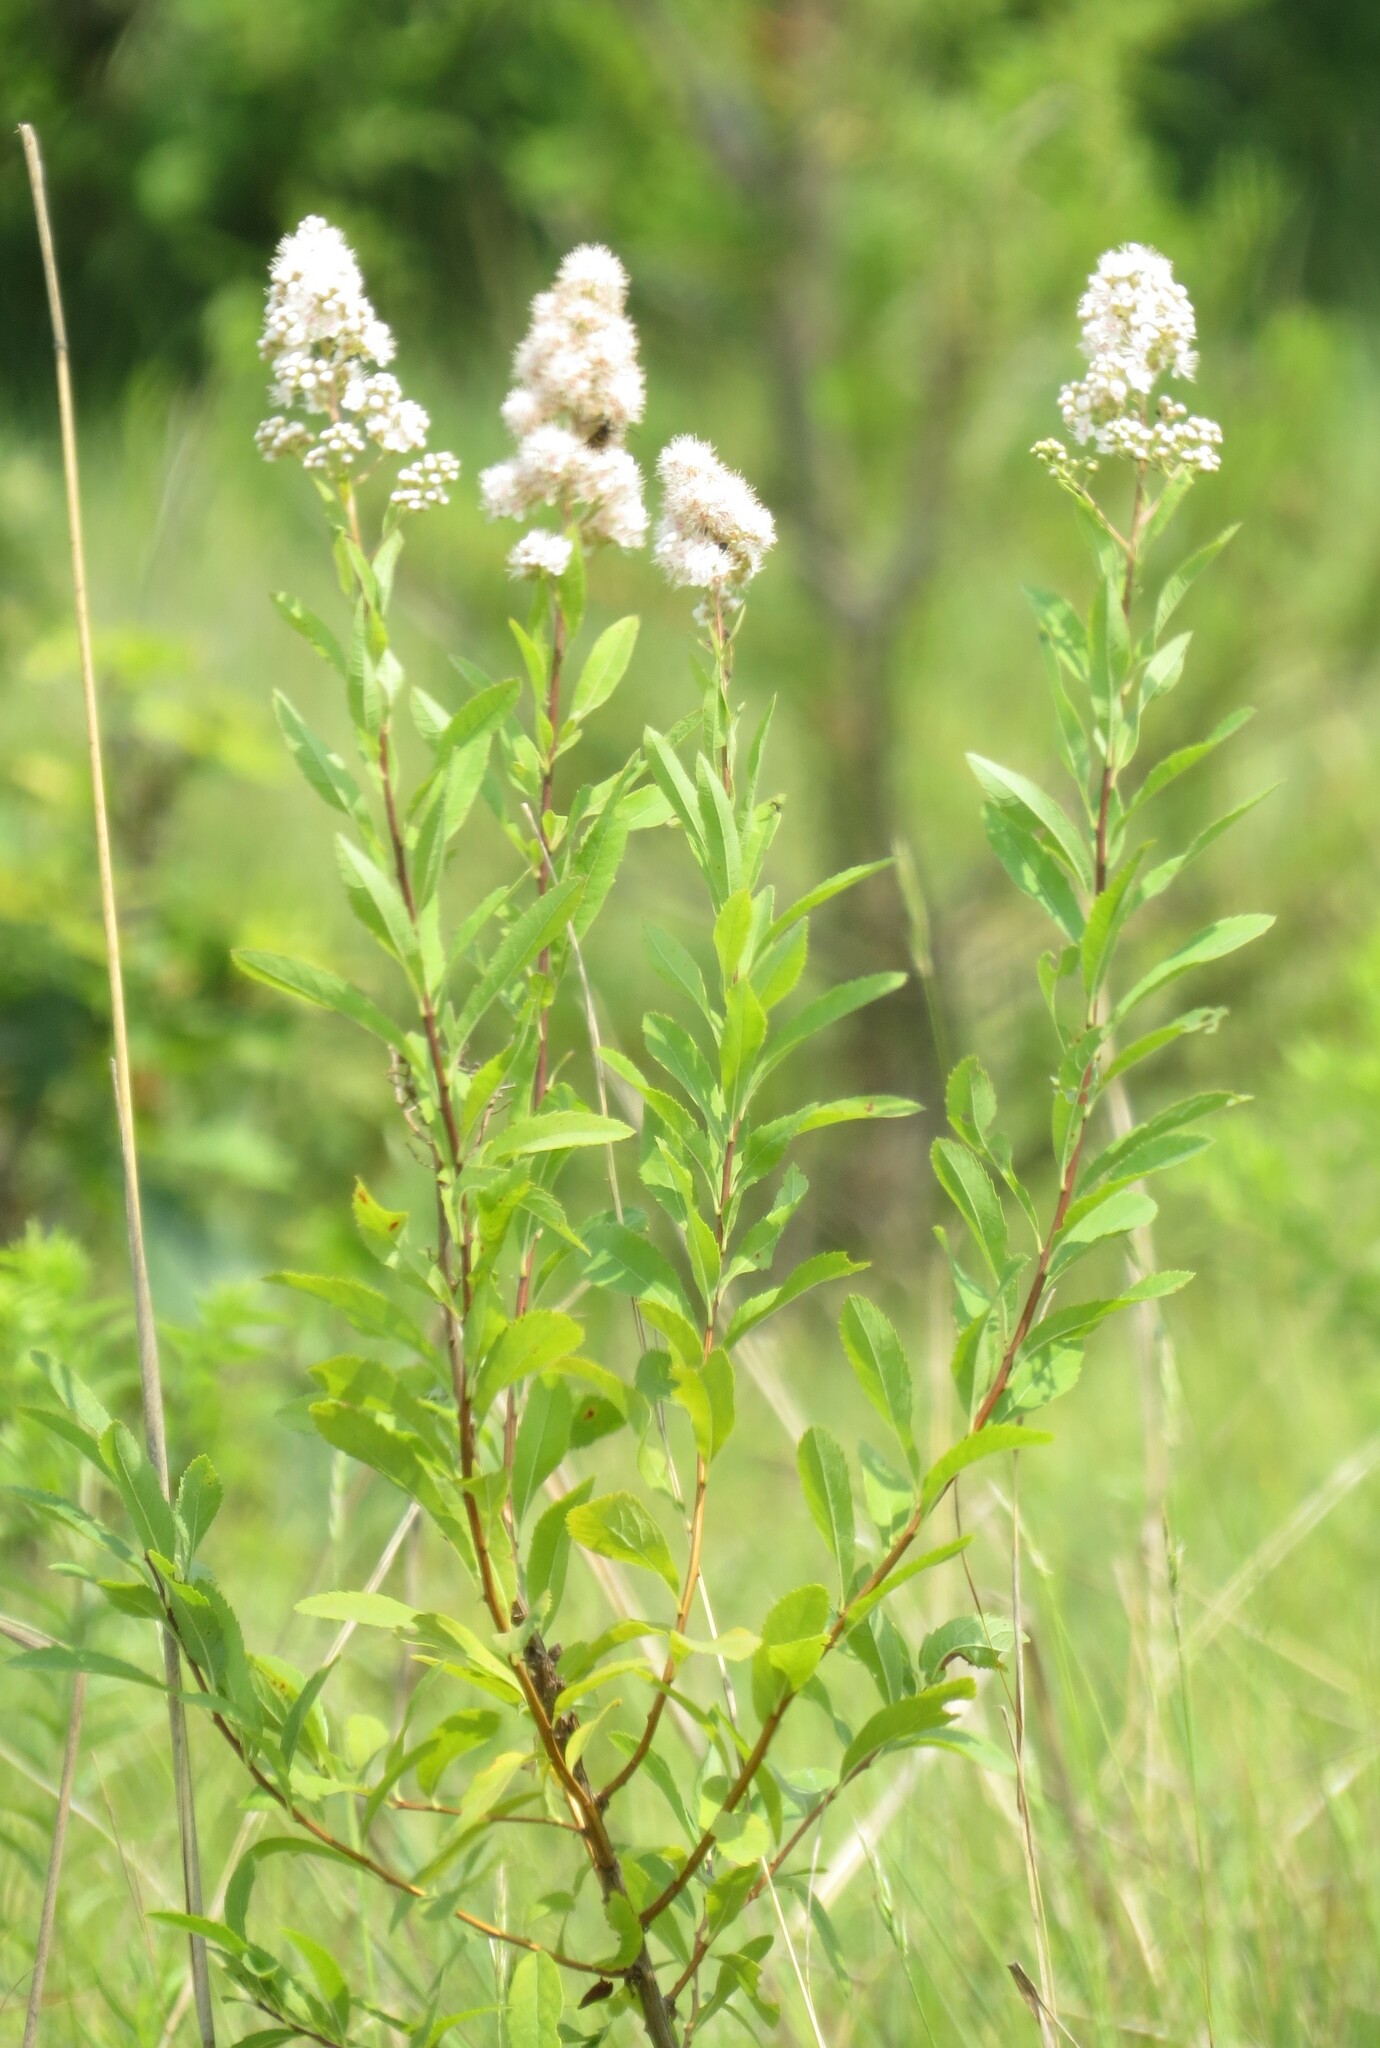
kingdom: Plantae
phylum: Tracheophyta
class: Magnoliopsida
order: Rosales
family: Rosaceae
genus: Spiraea
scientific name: Spiraea alba
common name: Pale bridewort
